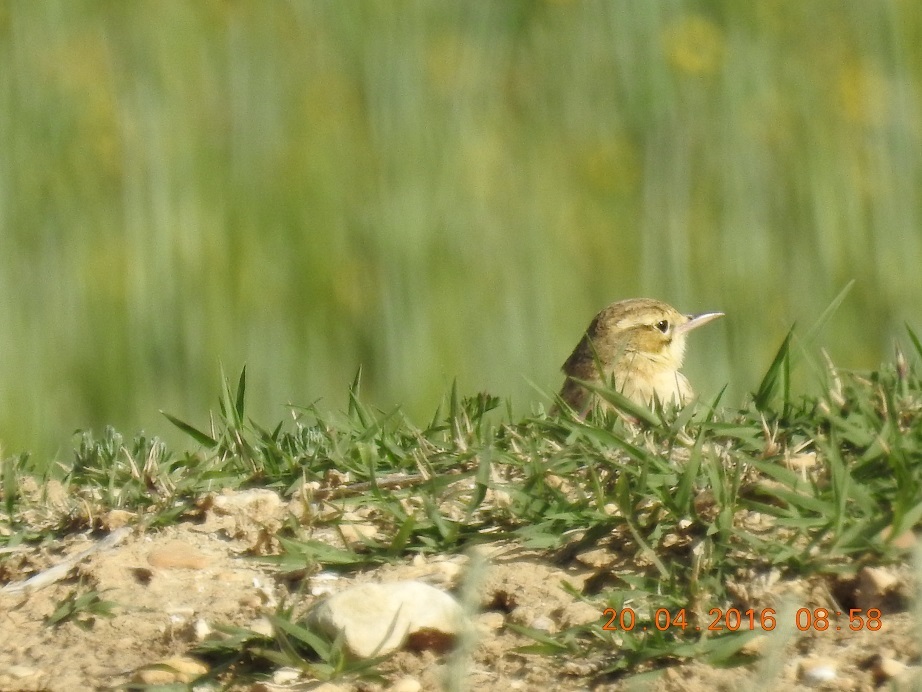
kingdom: Animalia
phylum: Chordata
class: Aves
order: Passeriformes
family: Motacillidae
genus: Anthus
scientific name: Anthus campestris
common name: Tawny pipit
